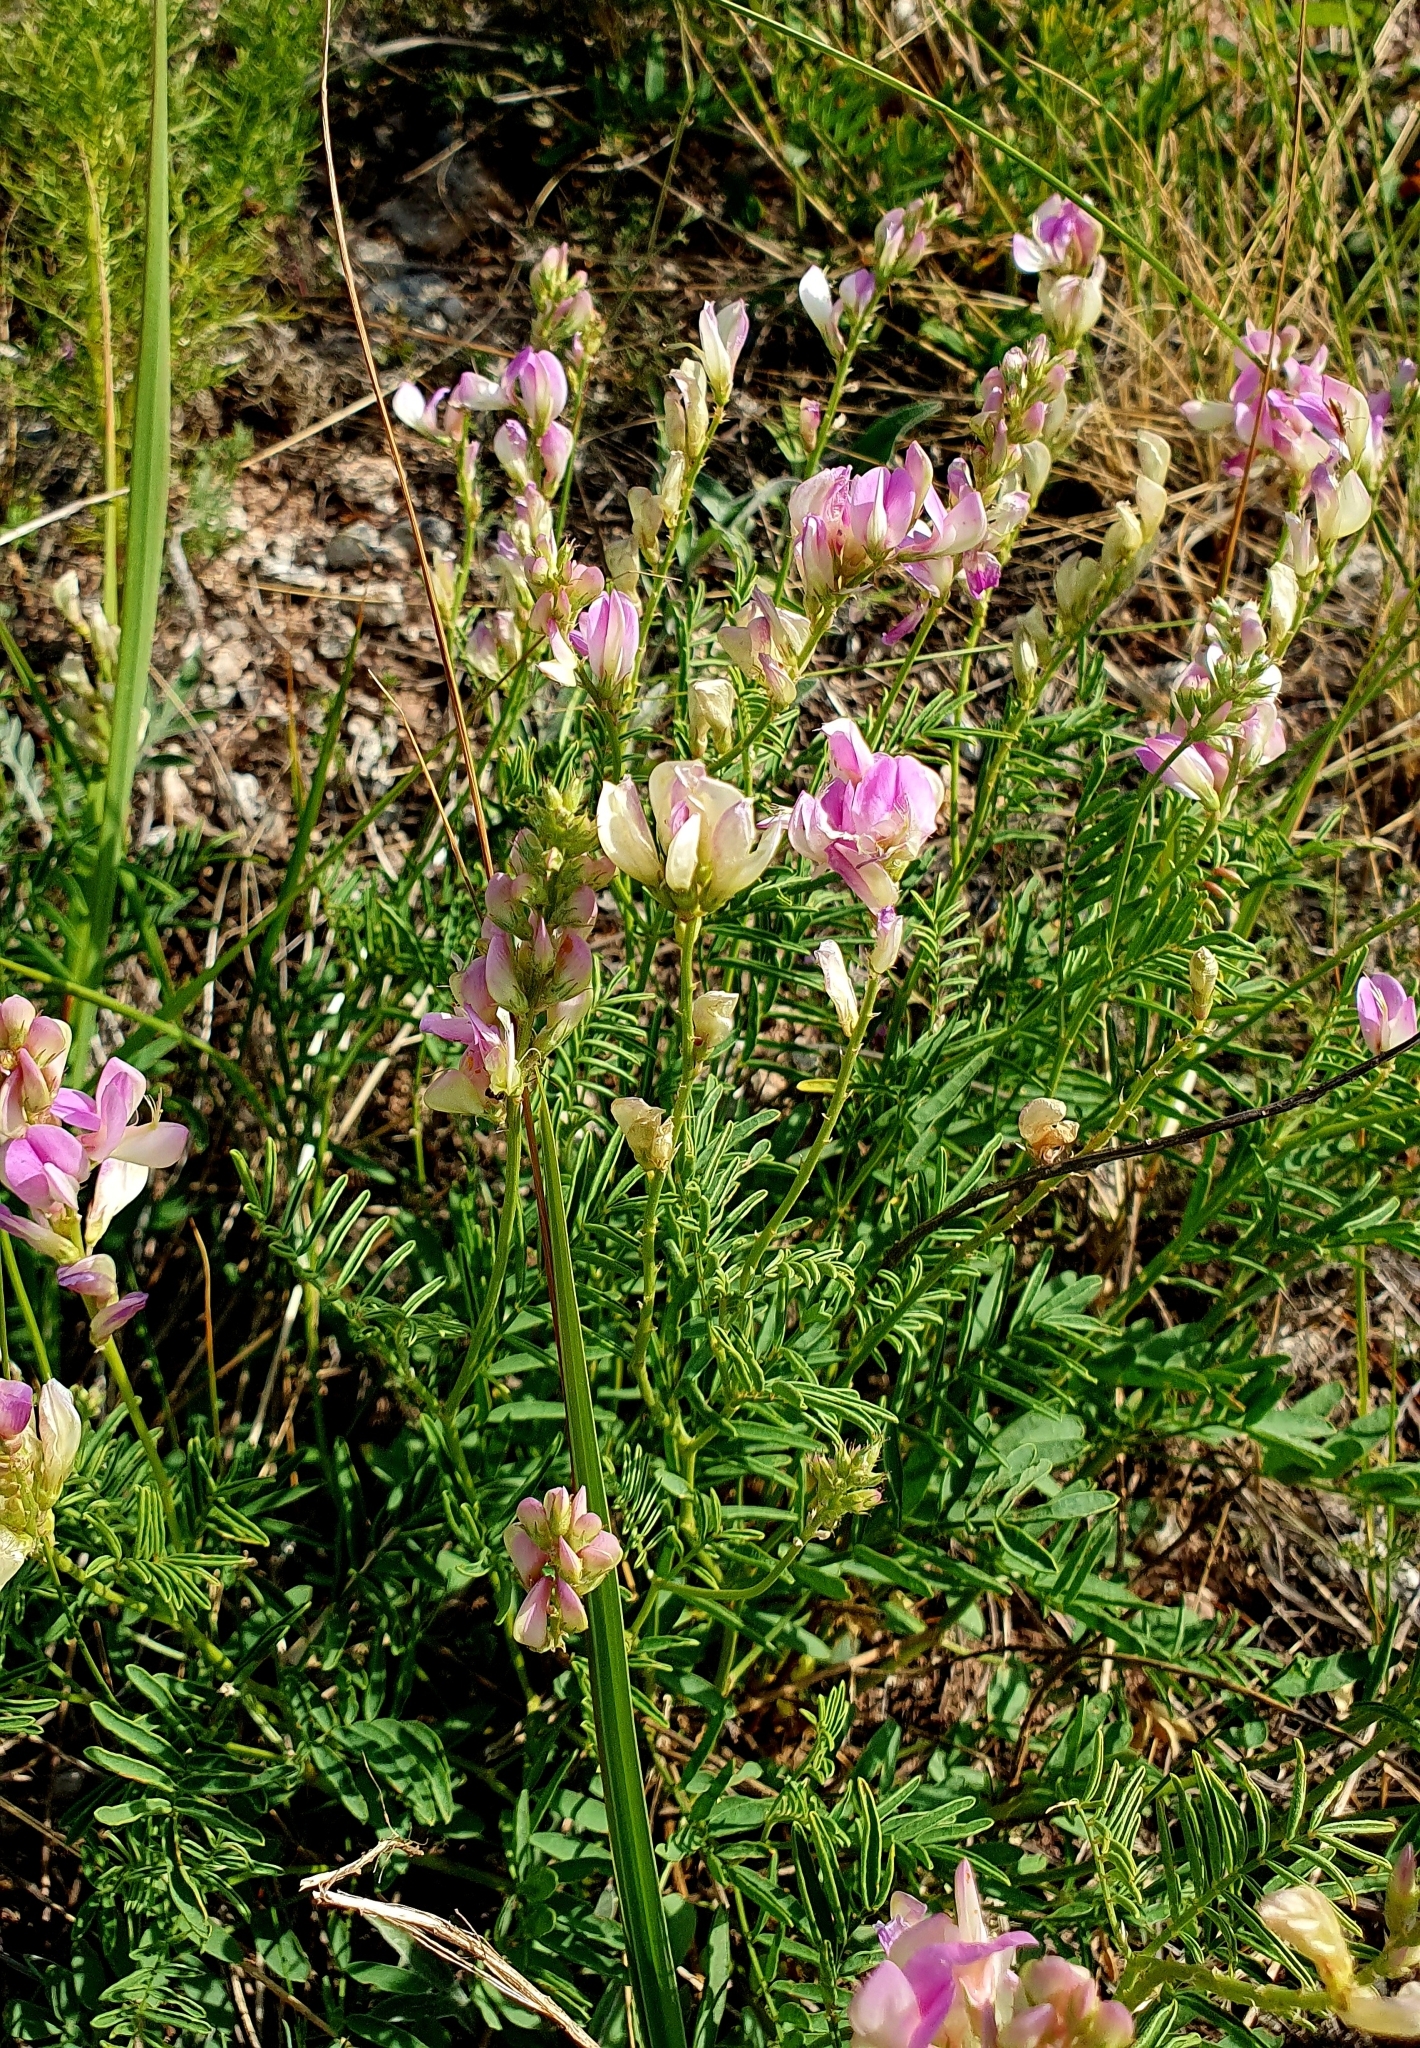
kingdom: Plantae
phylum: Tracheophyta
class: Magnoliopsida
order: Fabales
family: Fabaceae
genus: Hedysarum
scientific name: Hedysarum razoumovianum
